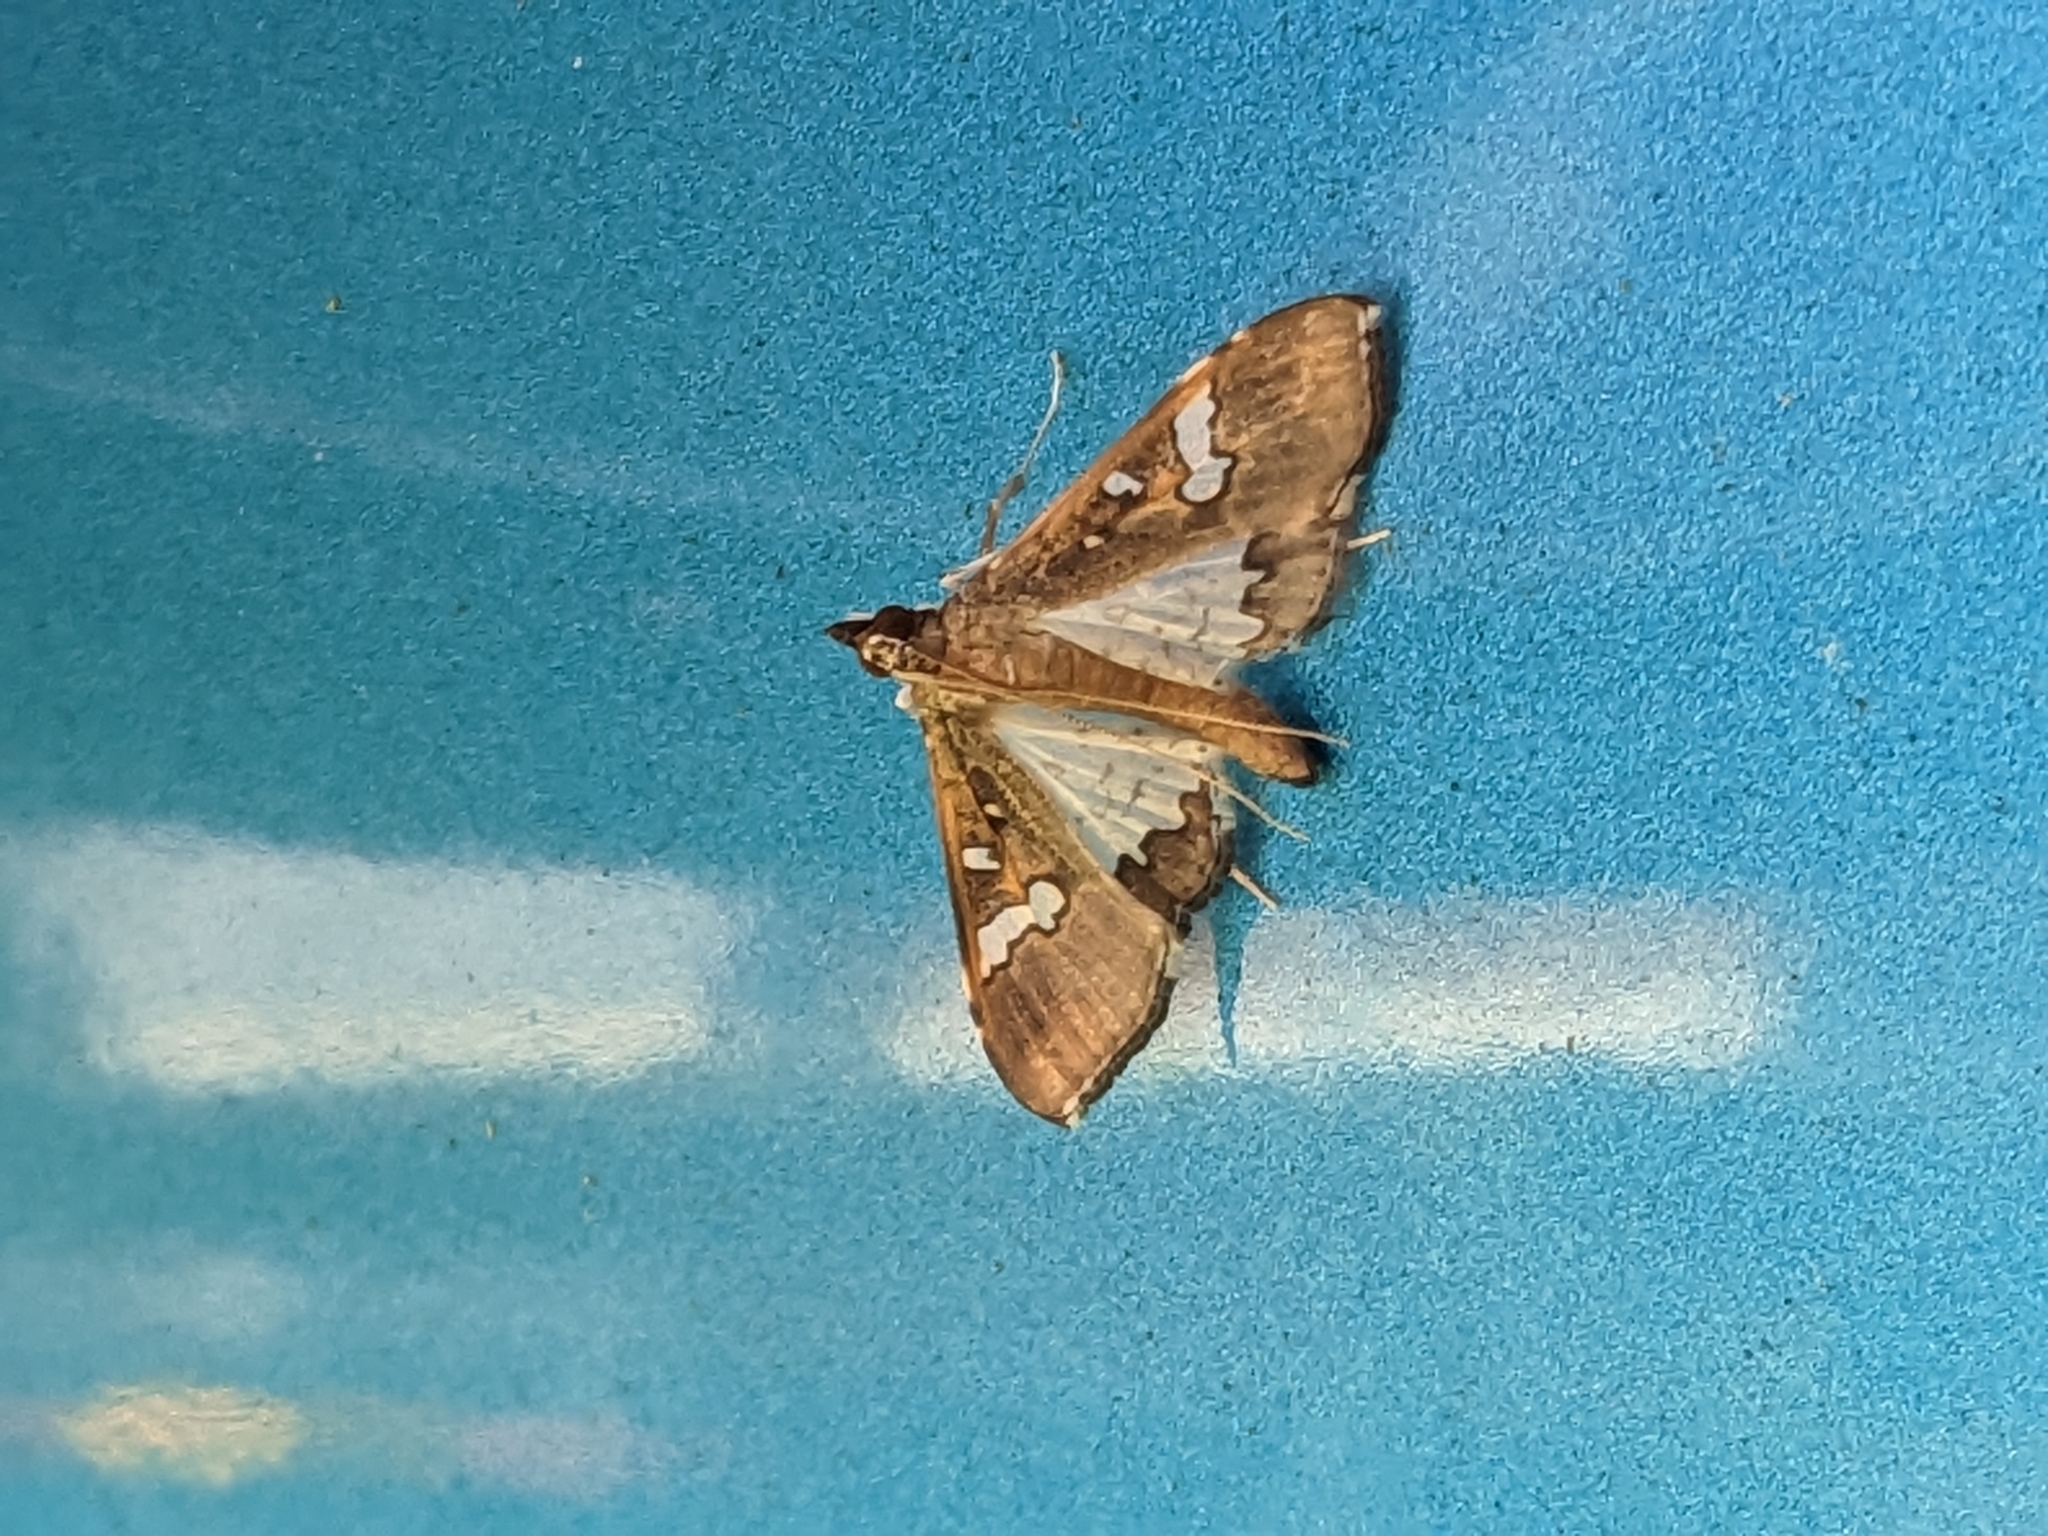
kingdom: Animalia
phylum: Arthropoda
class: Insecta
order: Lepidoptera
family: Crambidae
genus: Maruca
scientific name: Maruca vitrata
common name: Maruca pod borer
